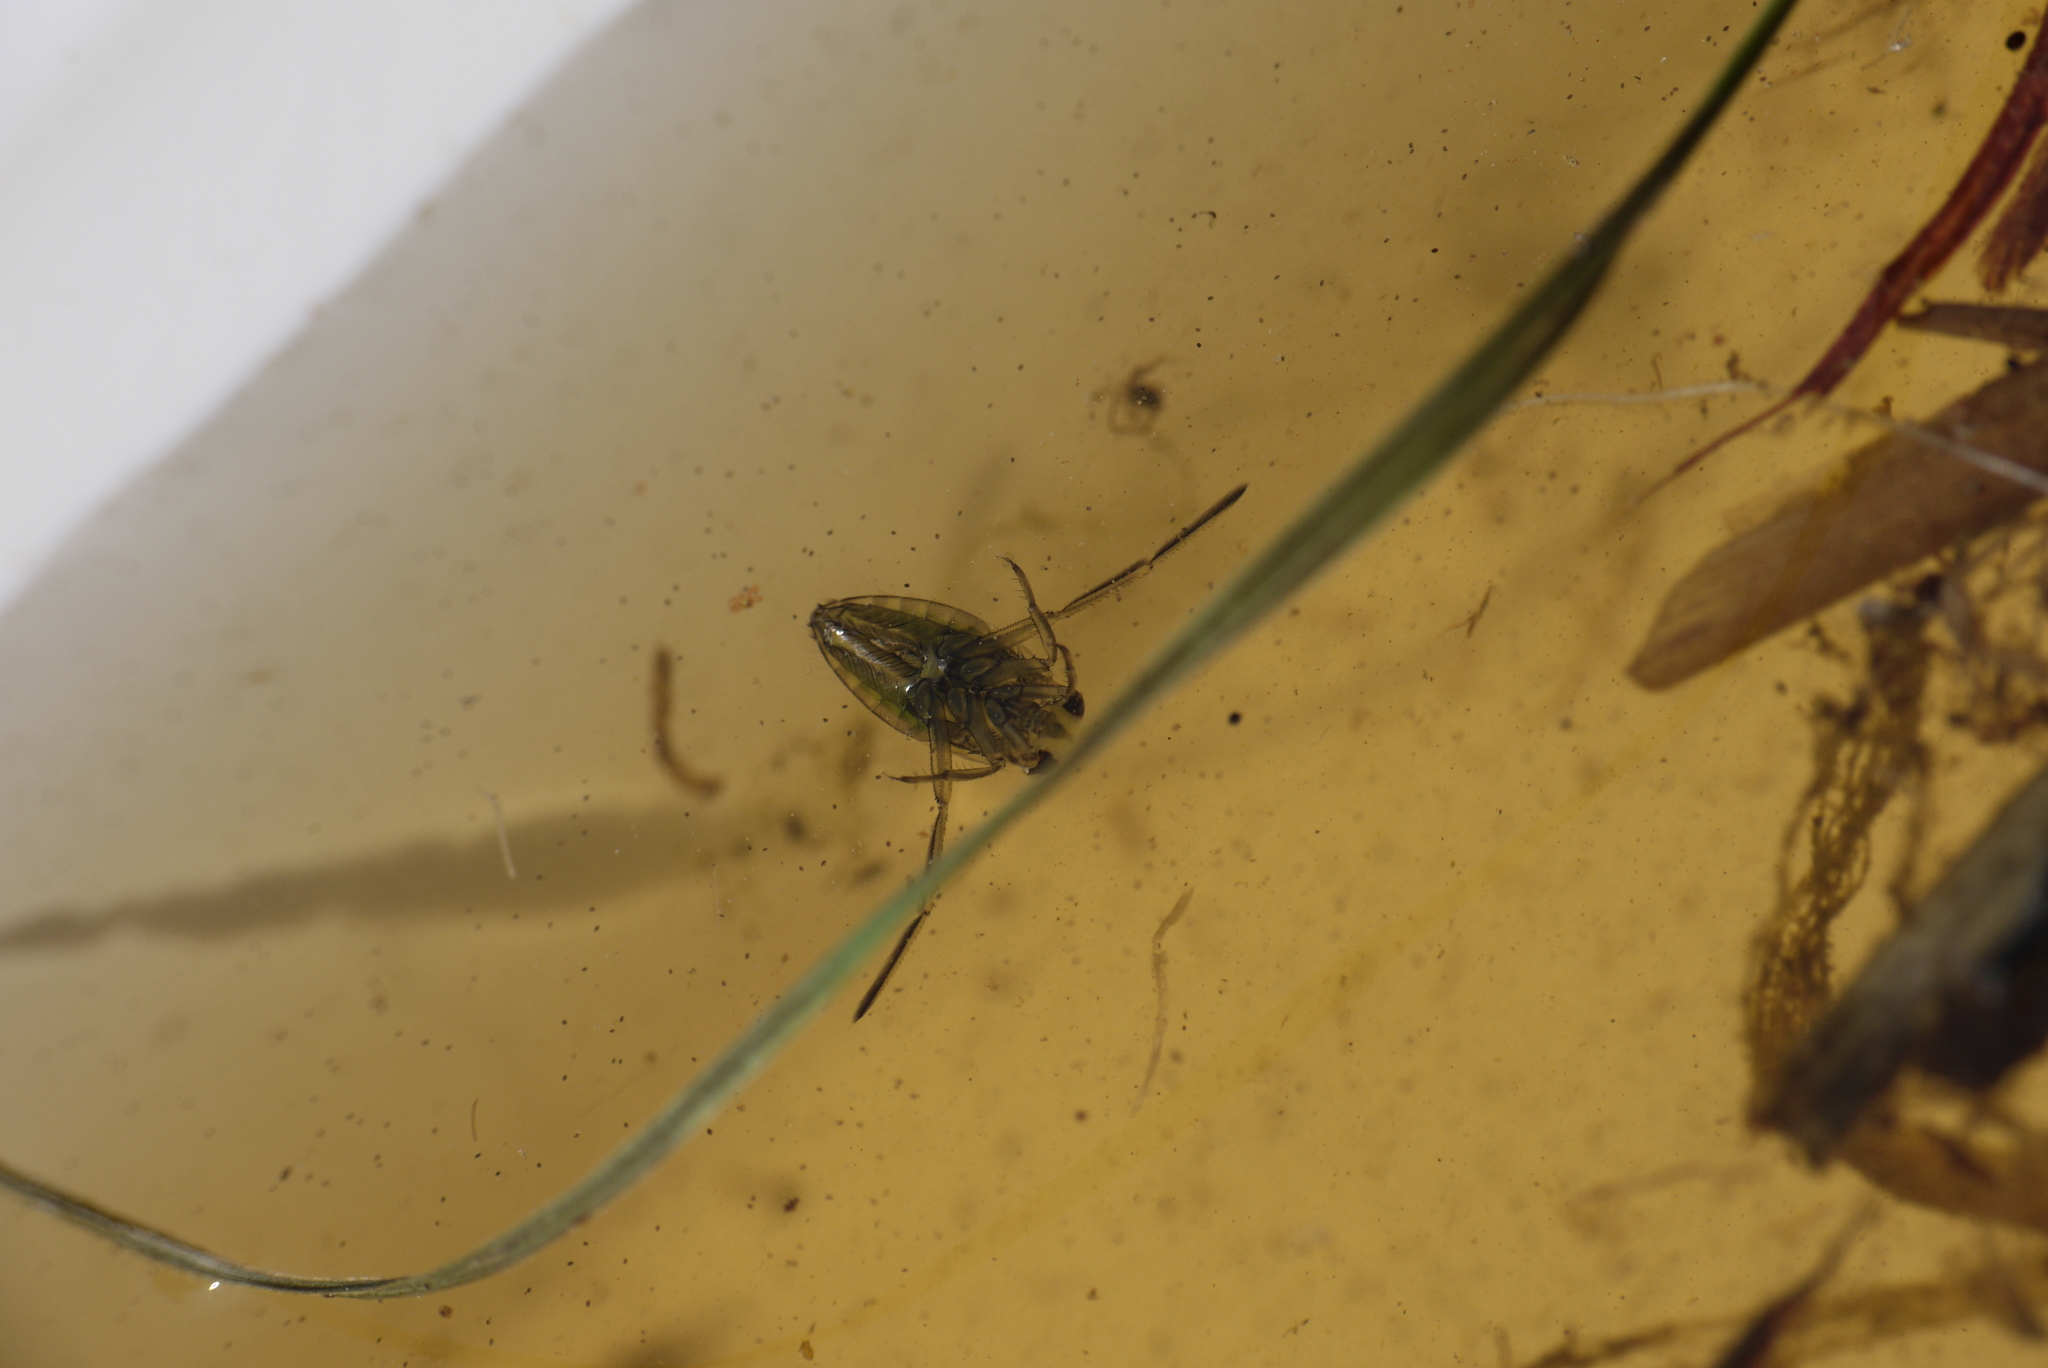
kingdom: Animalia
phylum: Arthropoda
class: Insecta
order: Hemiptera
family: Notonectidae
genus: Notonecta
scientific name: Notonecta
